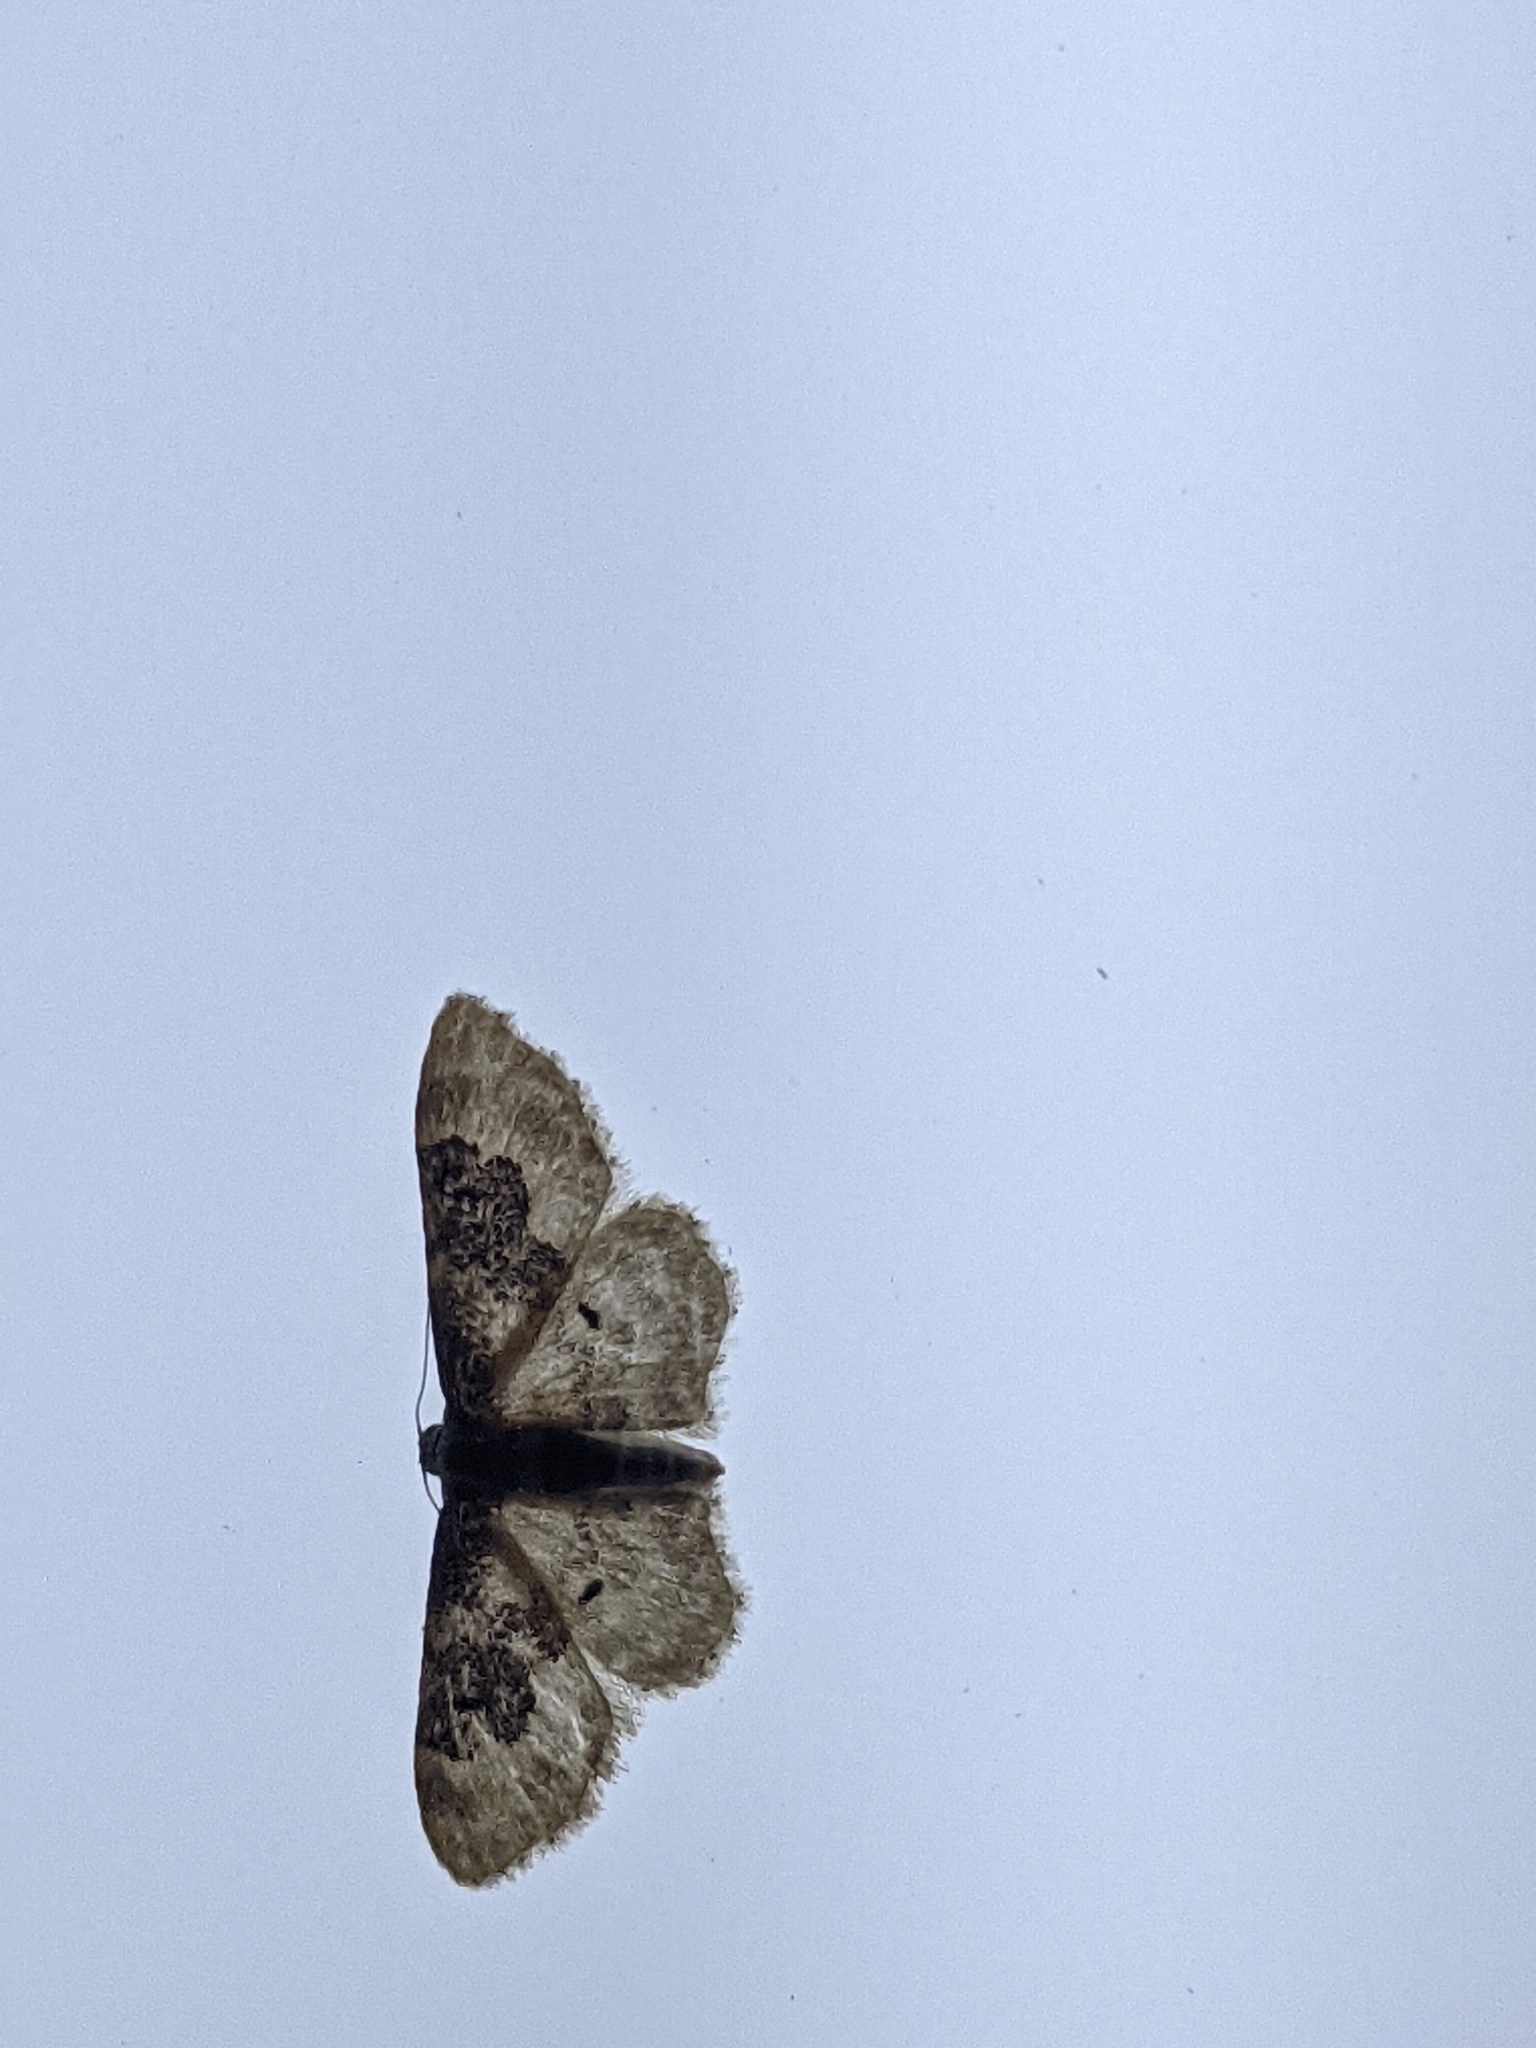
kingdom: Animalia
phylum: Arthropoda
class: Insecta
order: Lepidoptera
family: Geometridae
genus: Idaea
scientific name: Idaea rusticata
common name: Least carpet
